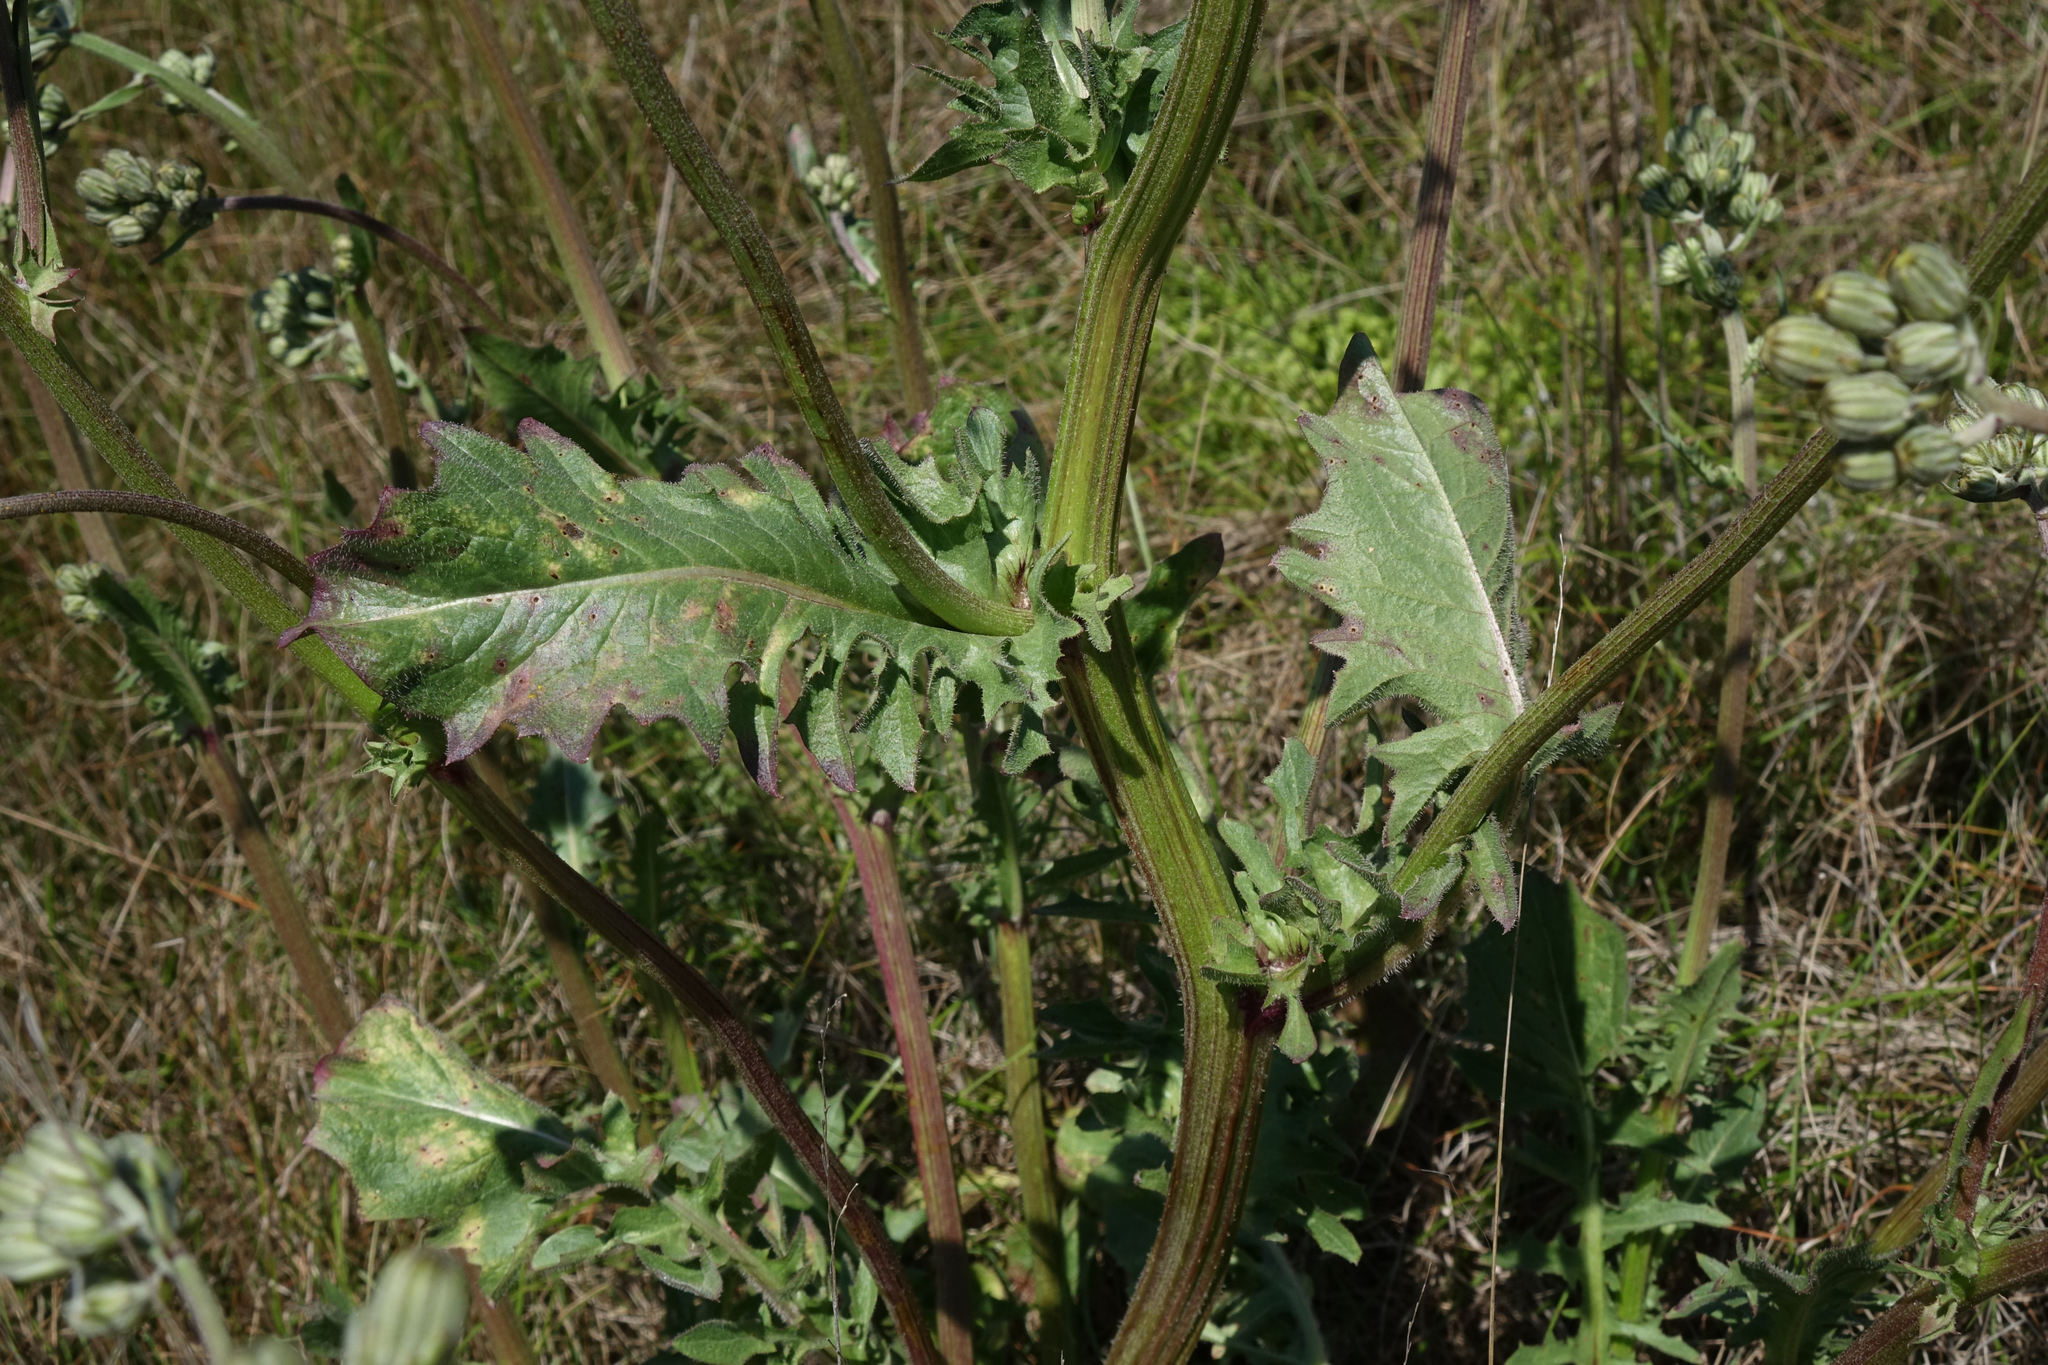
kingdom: Plantae
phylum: Tracheophyta
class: Magnoliopsida
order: Asterales
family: Asteraceae
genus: Crepis
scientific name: Crepis vesicaria
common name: Beaked hawksbeard
